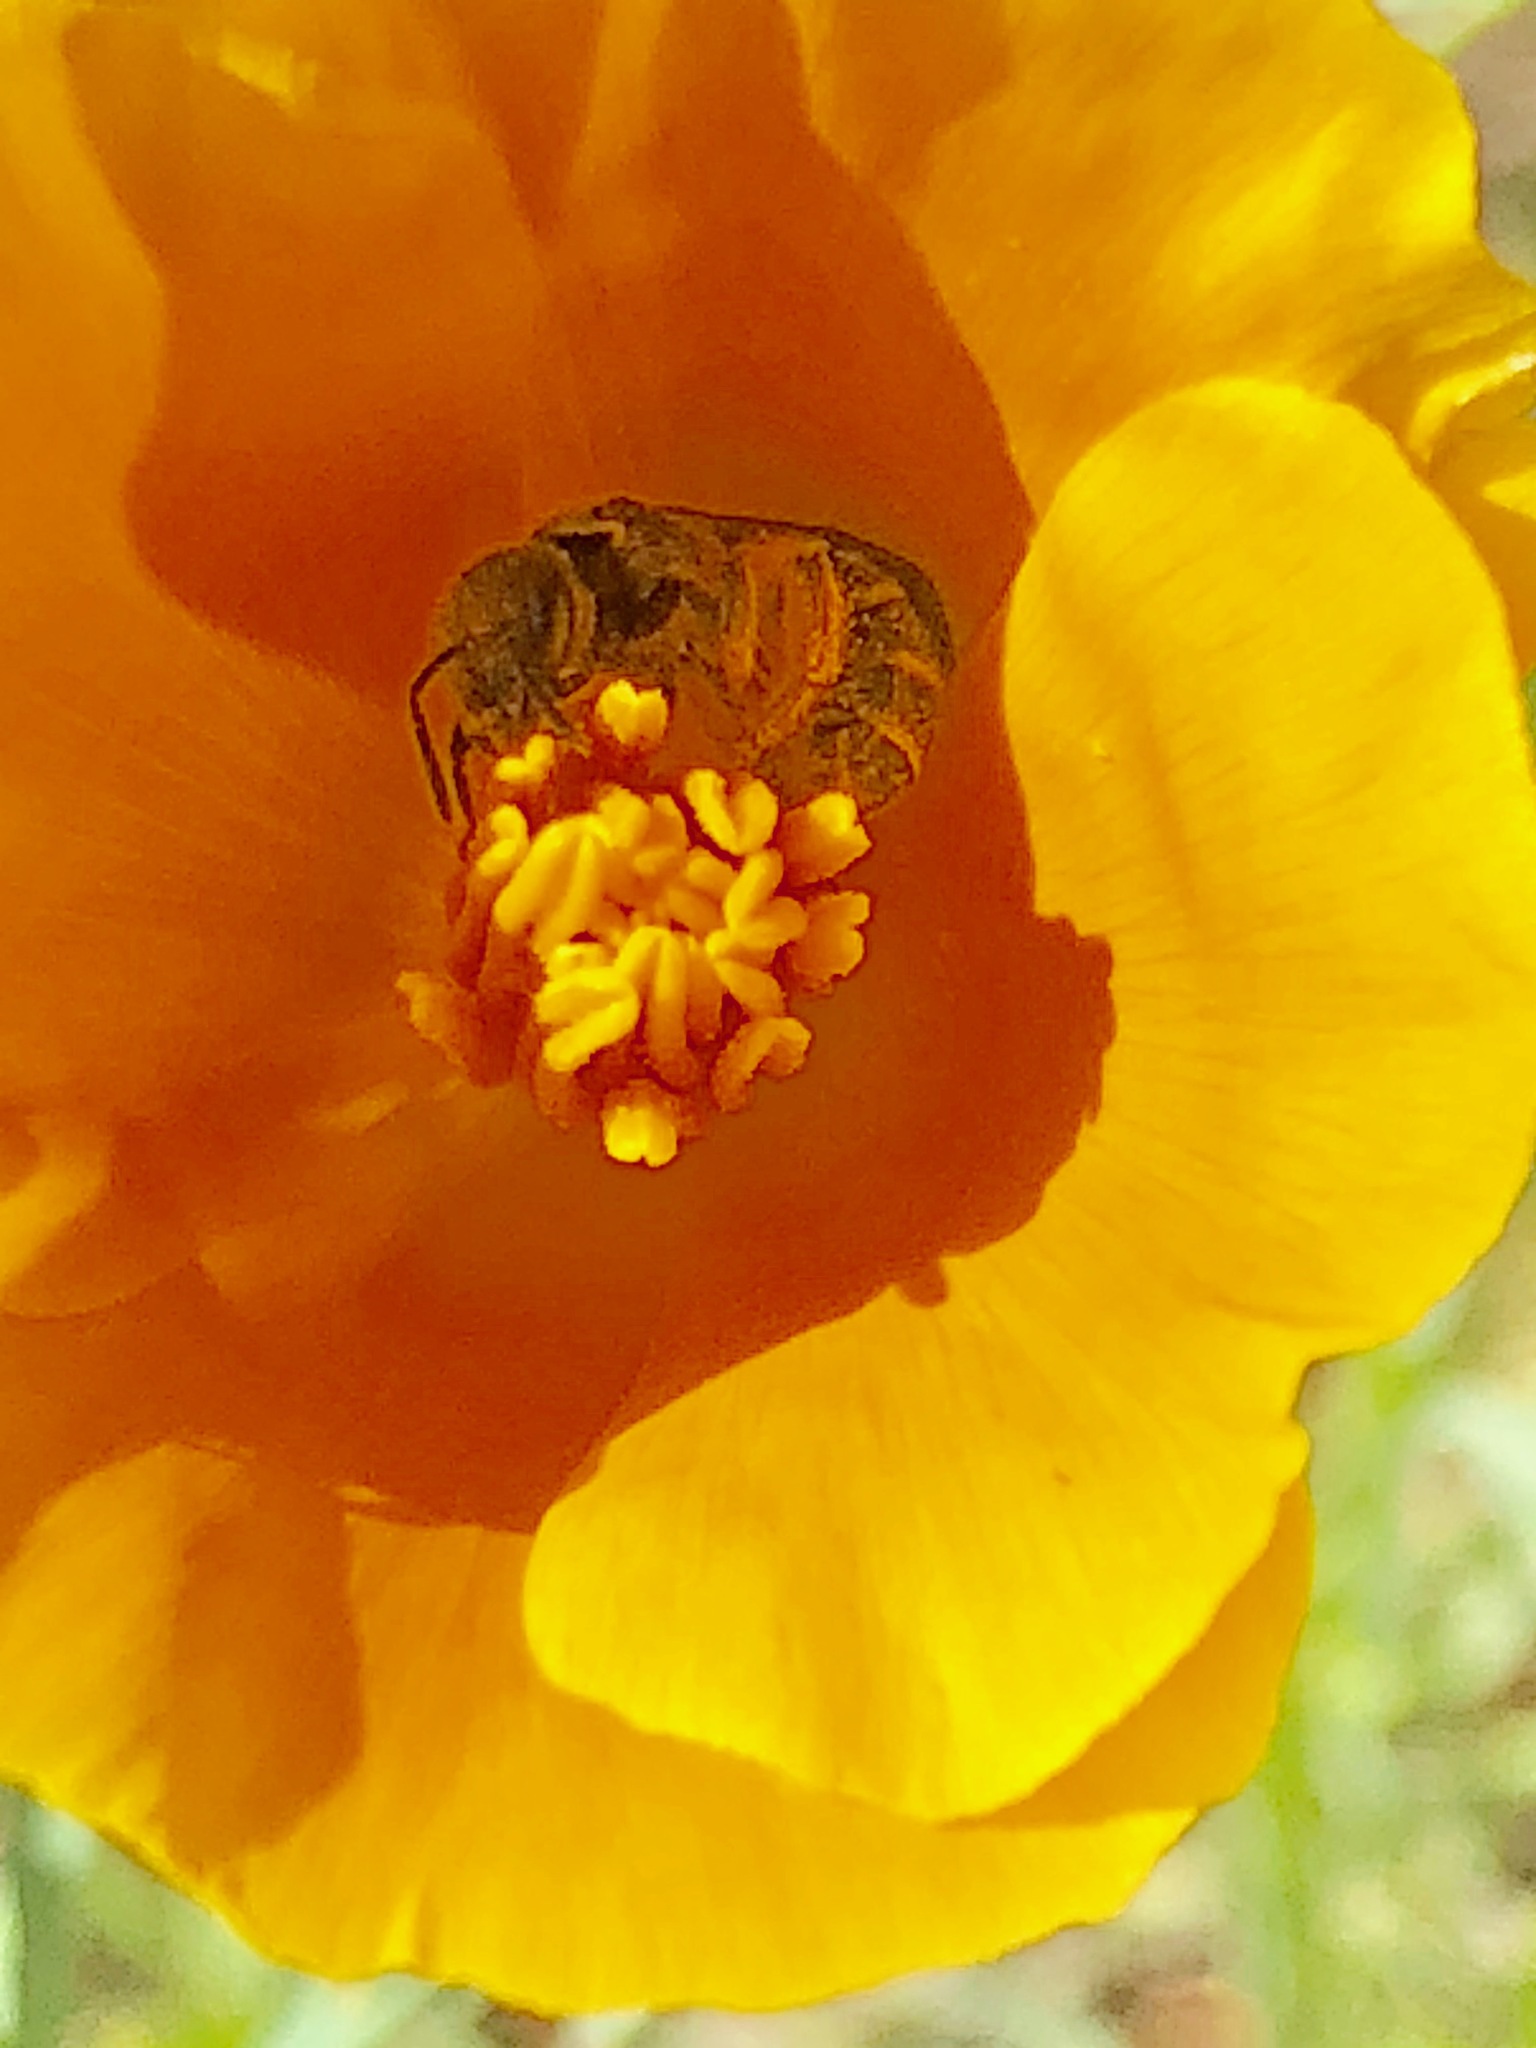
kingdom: Animalia
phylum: Arthropoda
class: Insecta
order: Hymenoptera
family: Halictidae
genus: Halictus
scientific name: Halictus tripartitus
